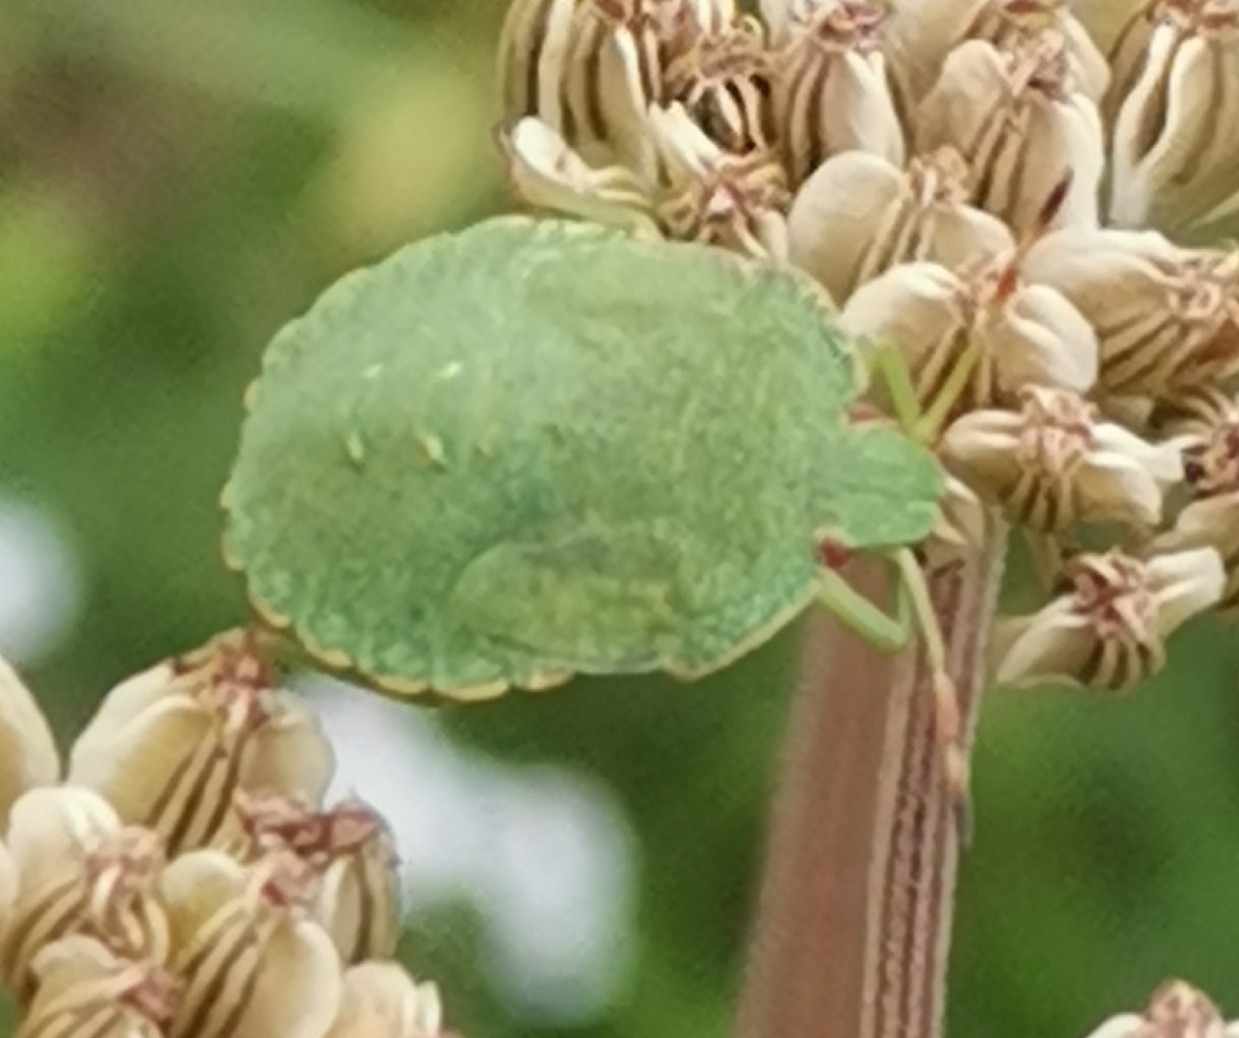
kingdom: Animalia
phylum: Arthropoda
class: Insecta
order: Hemiptera
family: Pentatomidae
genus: Palomena
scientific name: Palomena prasina
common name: Green shieldbug
